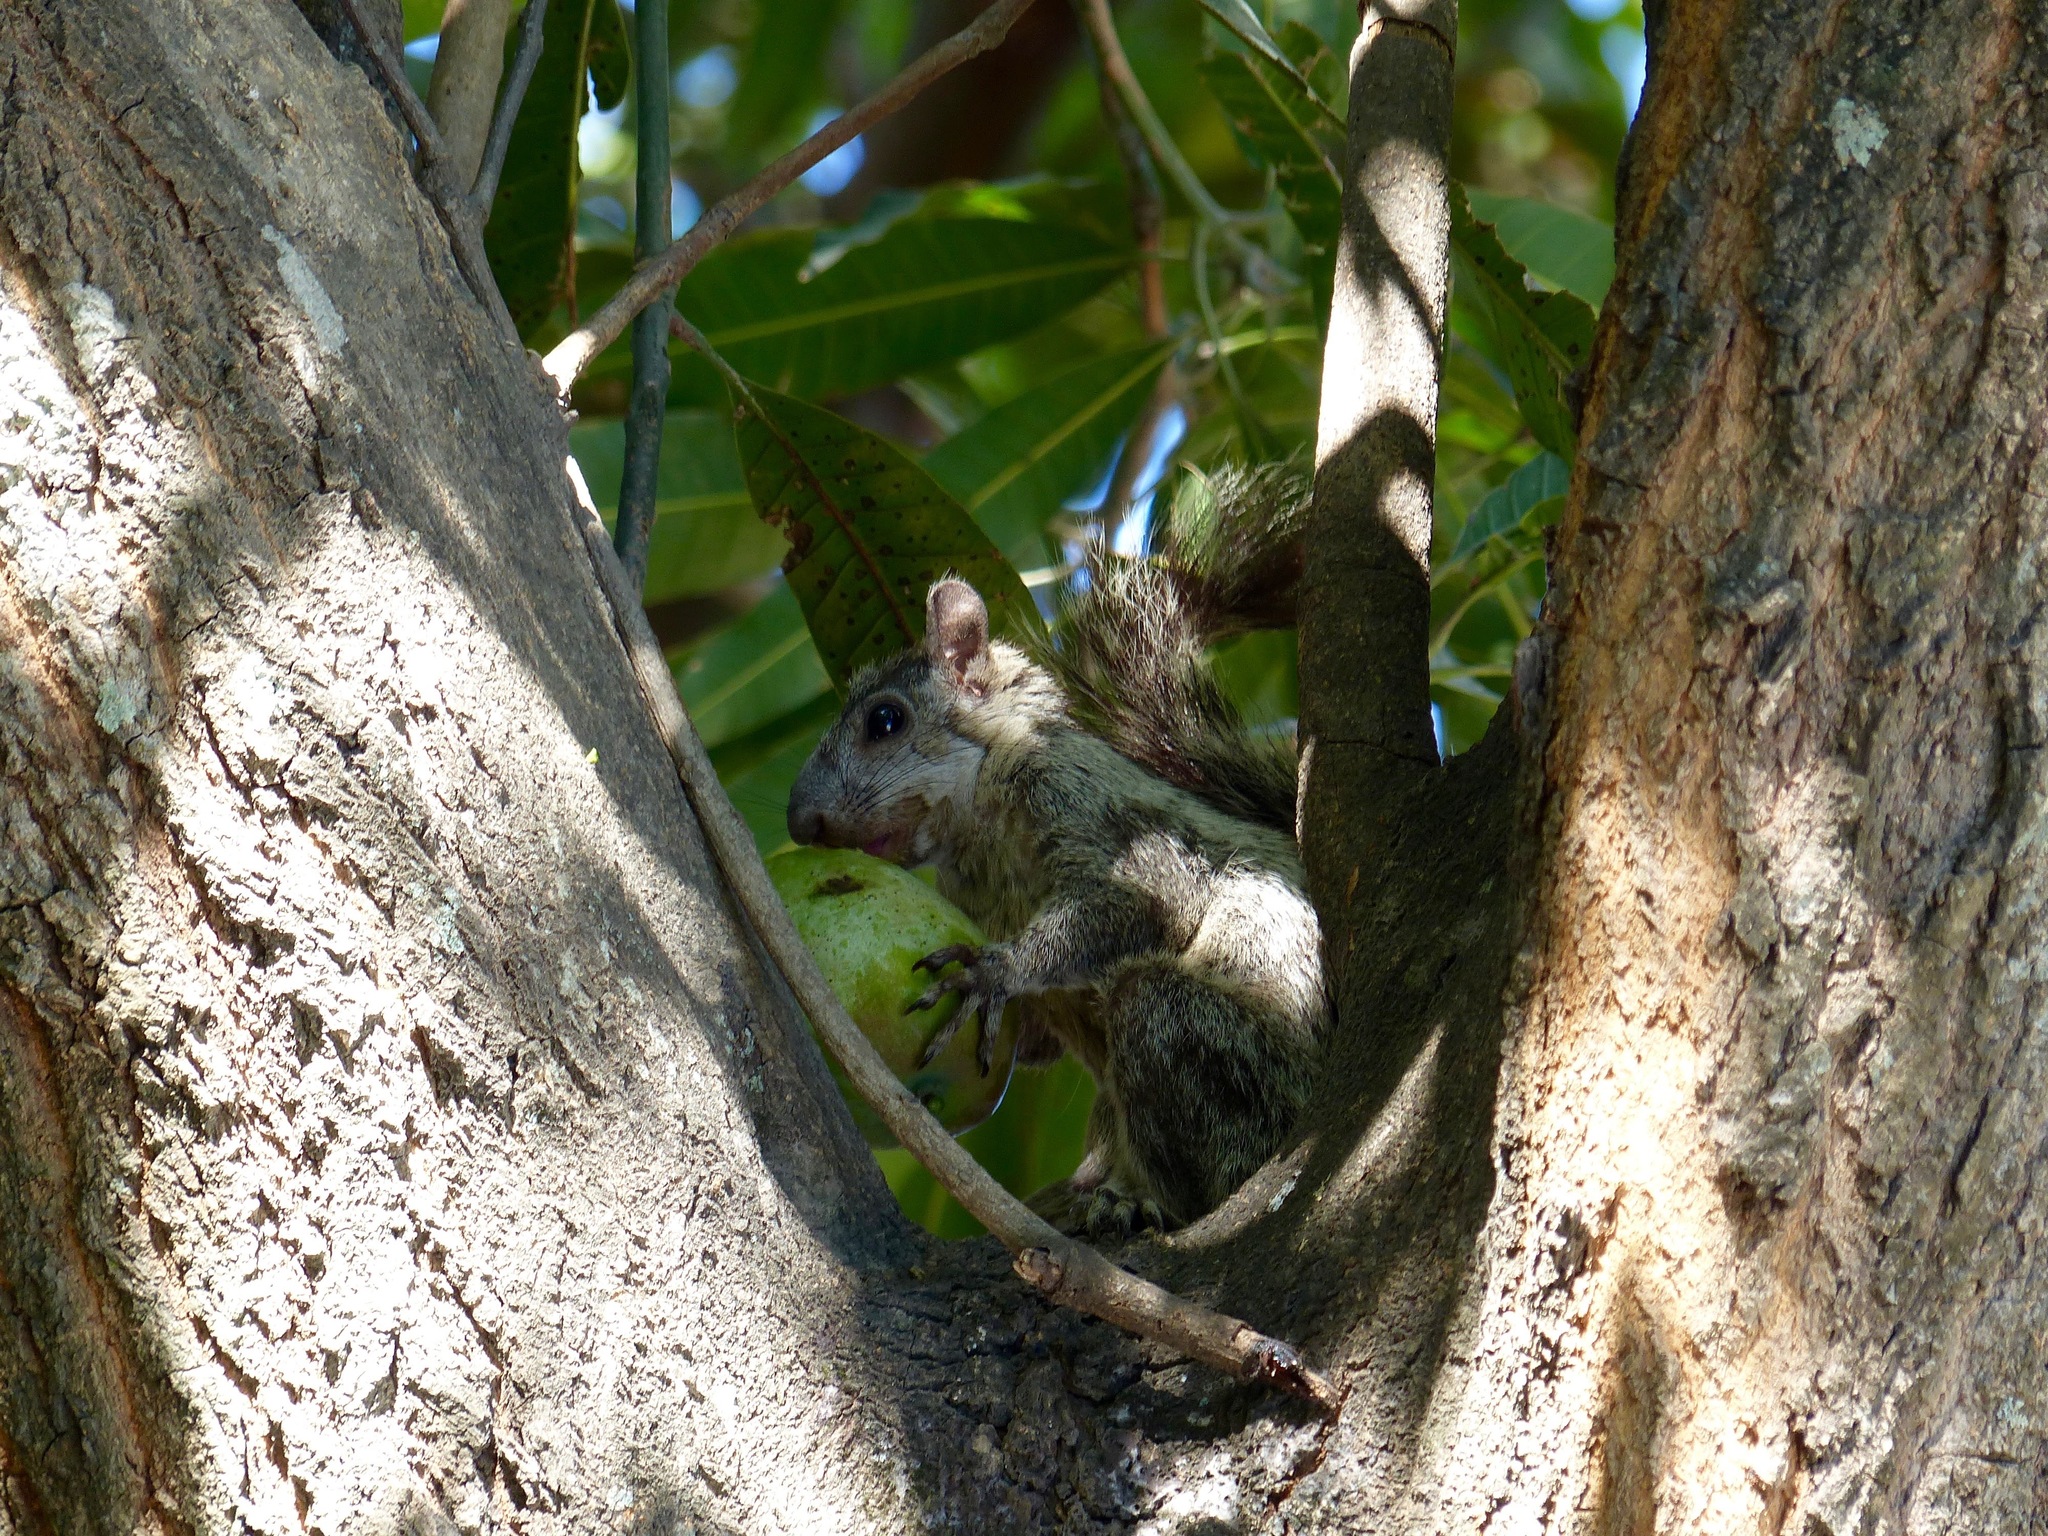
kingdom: Animalia
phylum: Chordata
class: Mammalia
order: Rodentia
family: Sciuridae
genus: Sciurus
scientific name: Sciurus variegatoides
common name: Variegated squirrel
